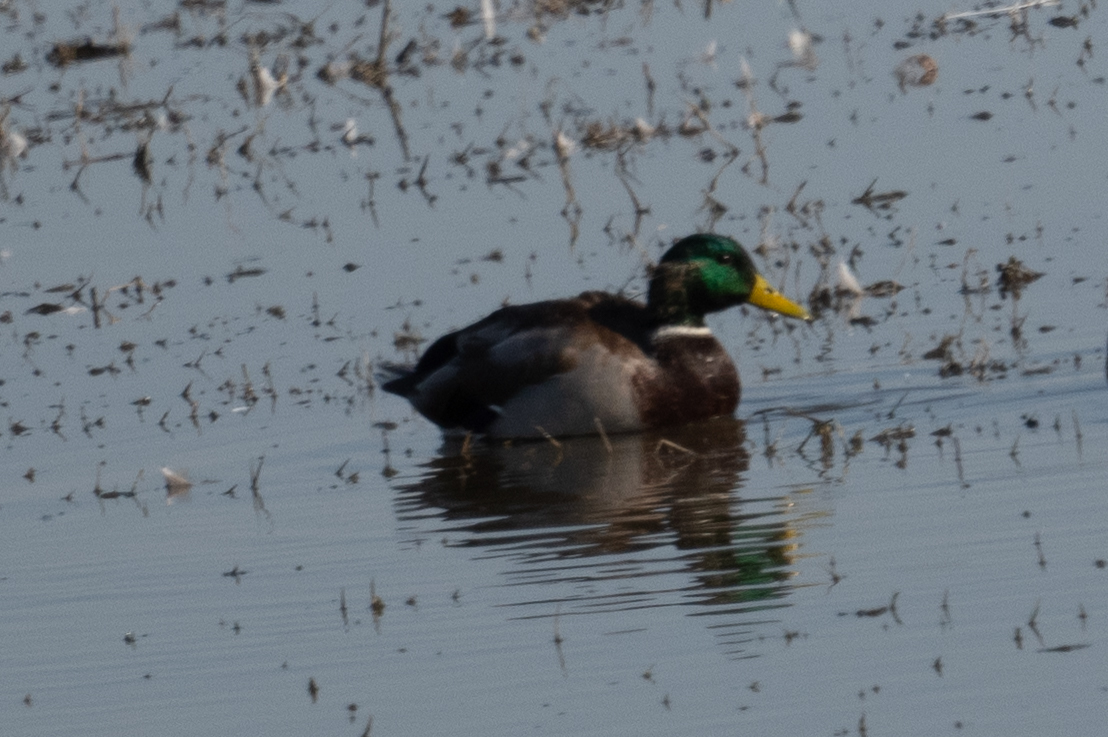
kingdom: Animalia
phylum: Chordata
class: Aves
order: Anseriformes
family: Anatidae
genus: Anas
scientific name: Anas platyrhynchos
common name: Mallard
